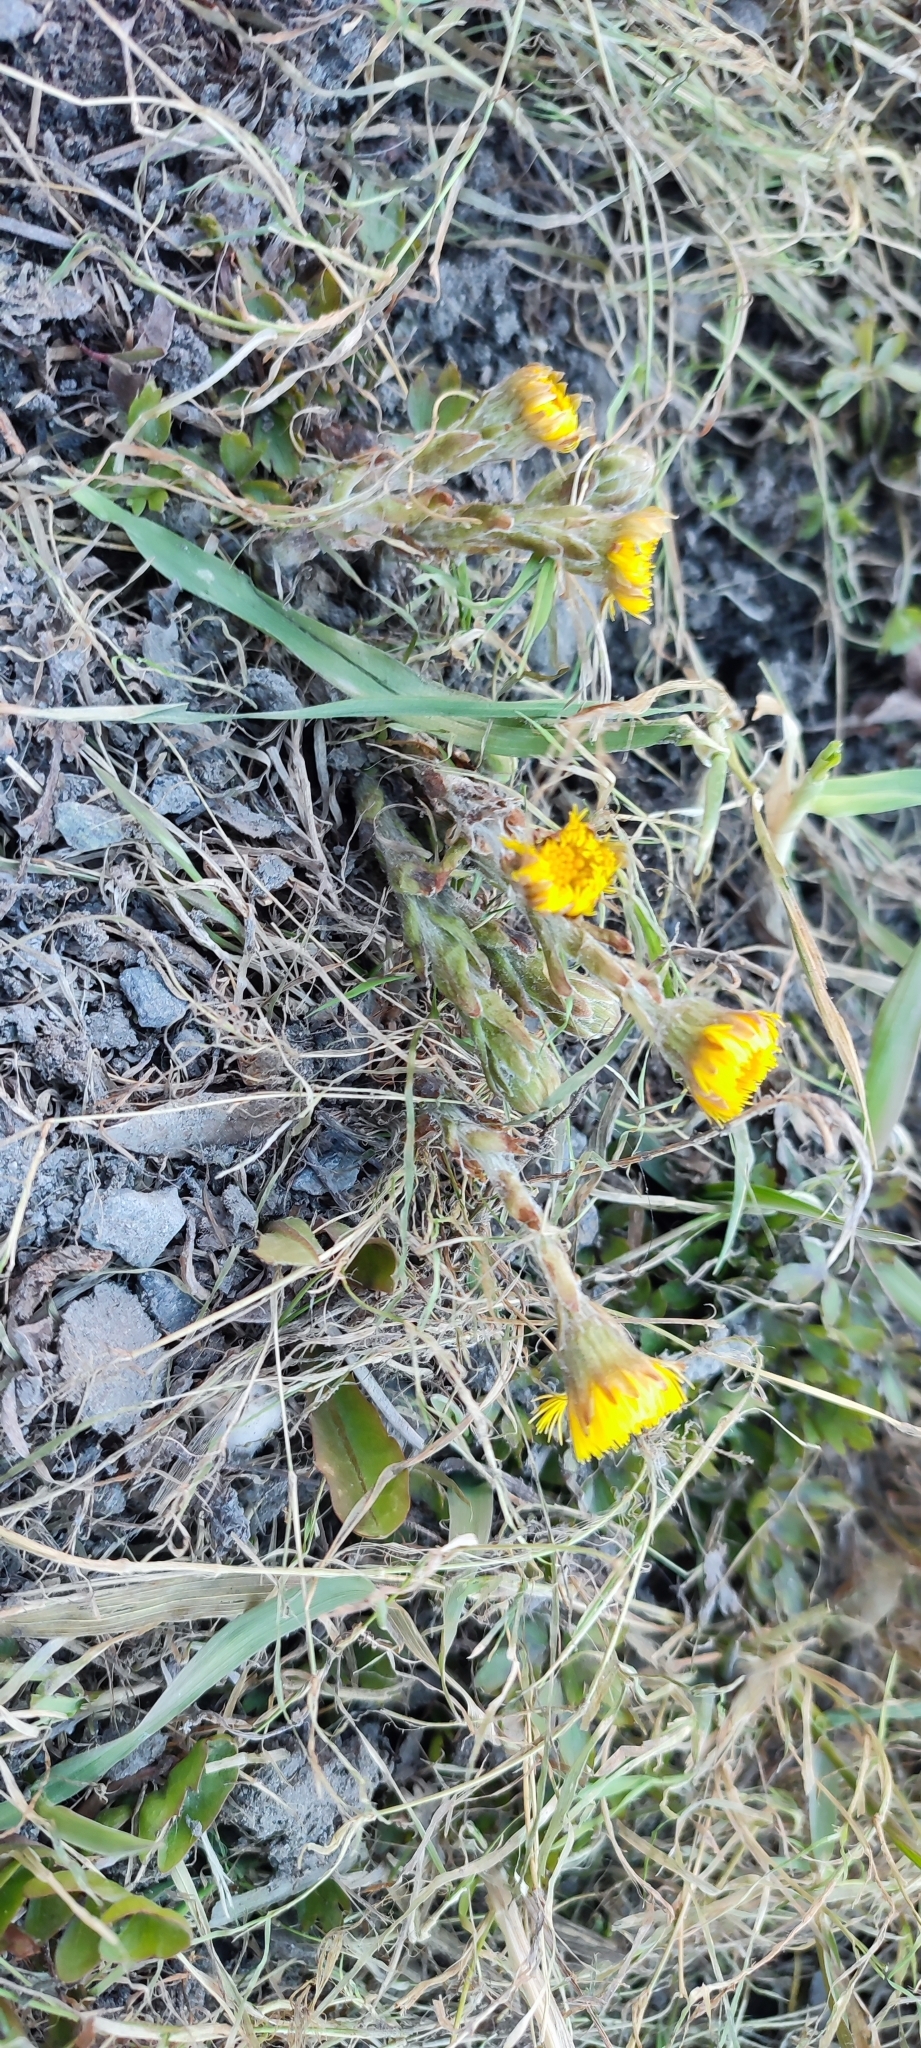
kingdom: Plantae
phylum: Tracheophyta
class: Magnoliopsida
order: Asterales
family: Asteraceae
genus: Tussilago
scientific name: Tussilago farfara
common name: Coltsfoot
